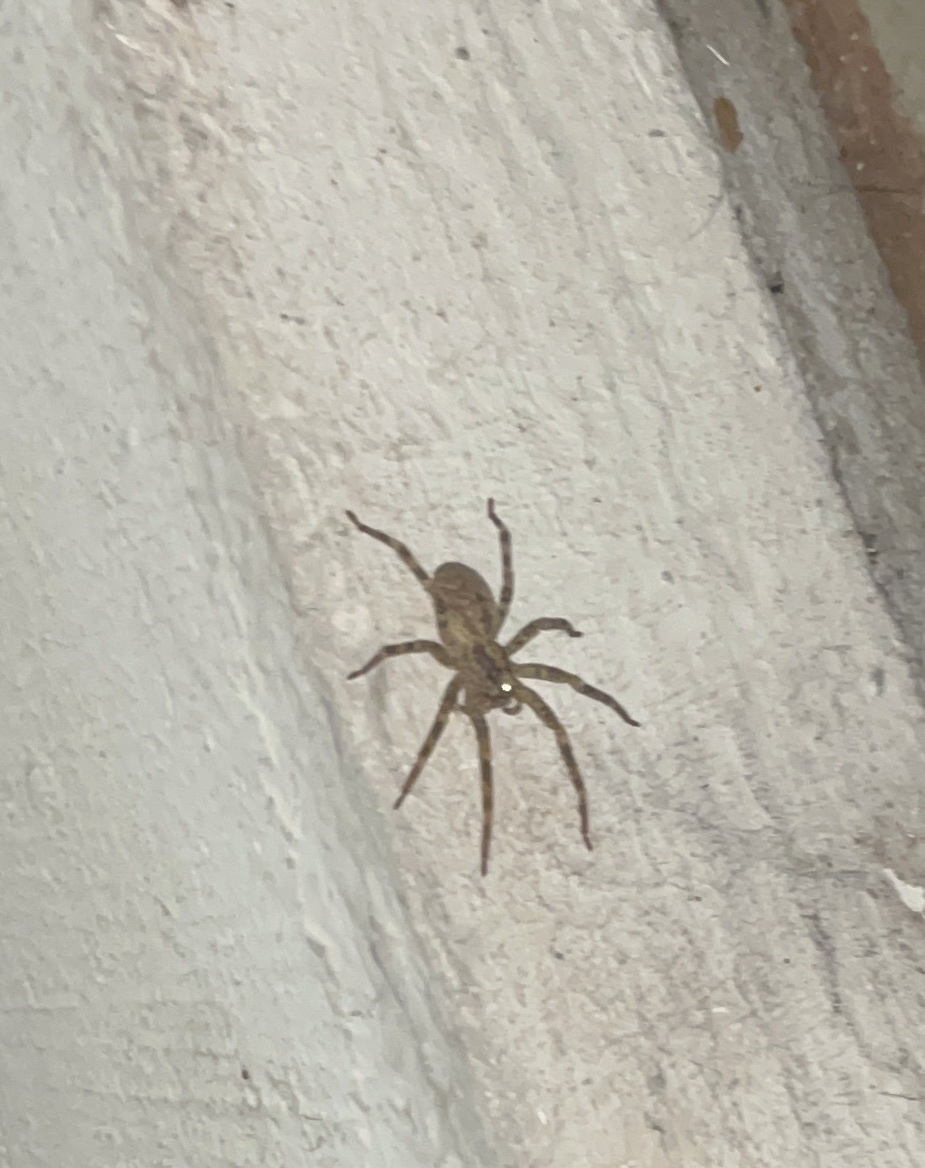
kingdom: Animalia
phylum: Arthropoda
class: Arachnida
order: Araneae
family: Zoropsidae
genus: Zoropsis
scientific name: Zoropsis spinimana
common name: Zoropsid spider
